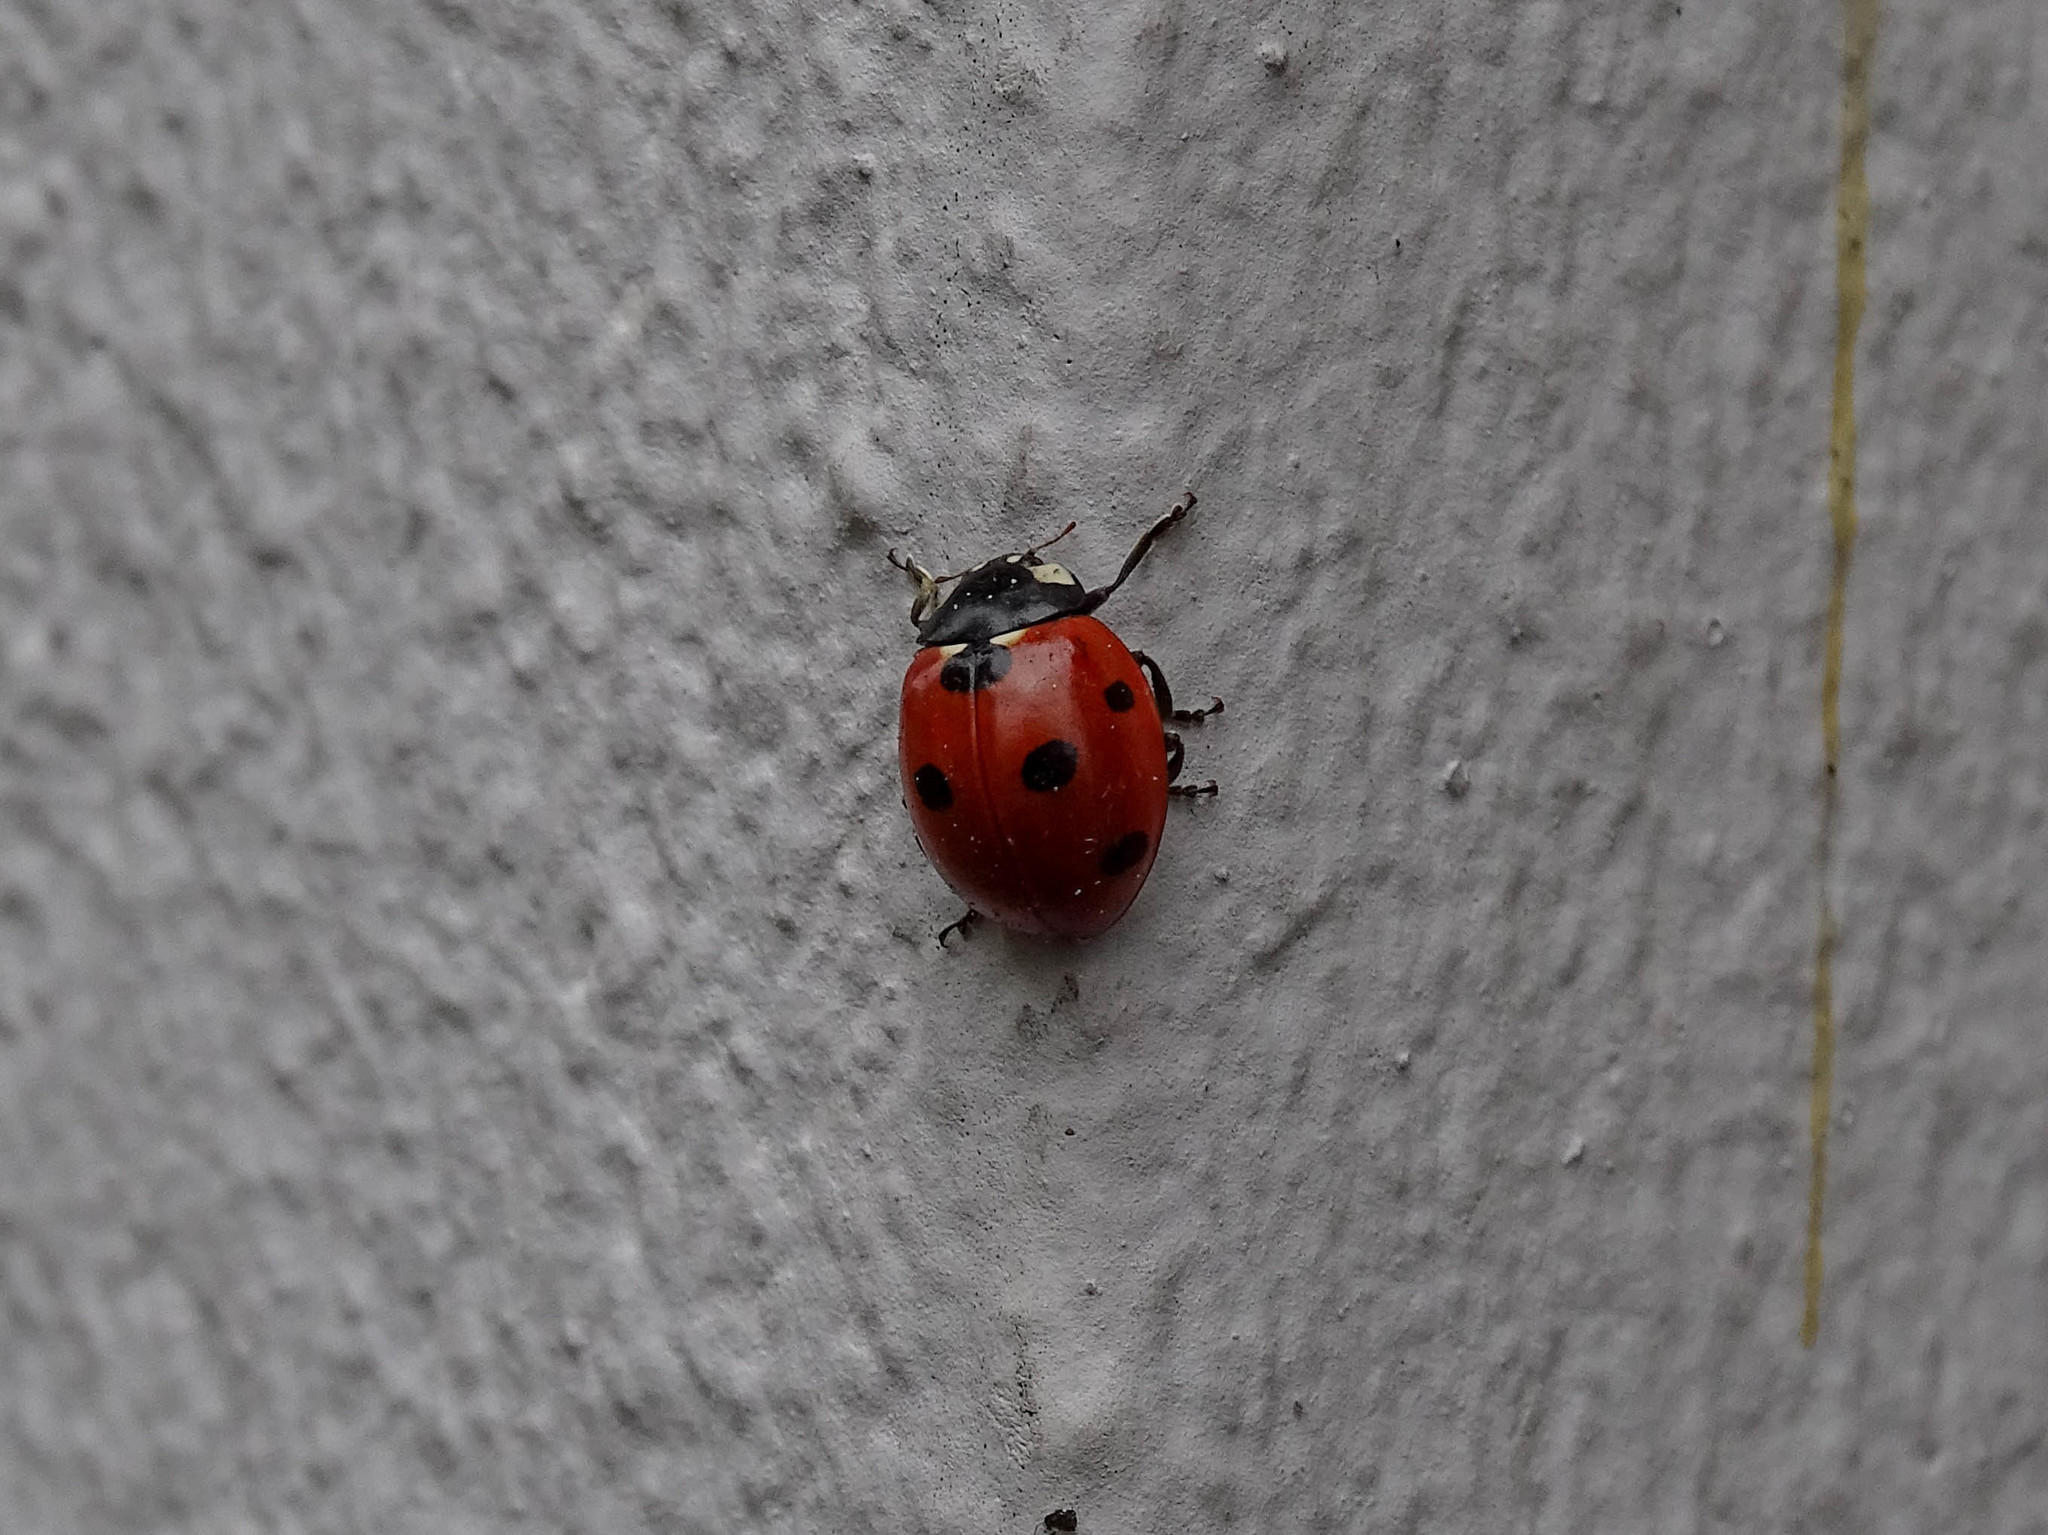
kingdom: Animalia
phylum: Arthropoda
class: Insecta
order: Coleoptera
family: Coccinellidae
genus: Coccinella
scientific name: Coccinella septempunctata
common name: Sevenspotted lady beetle
